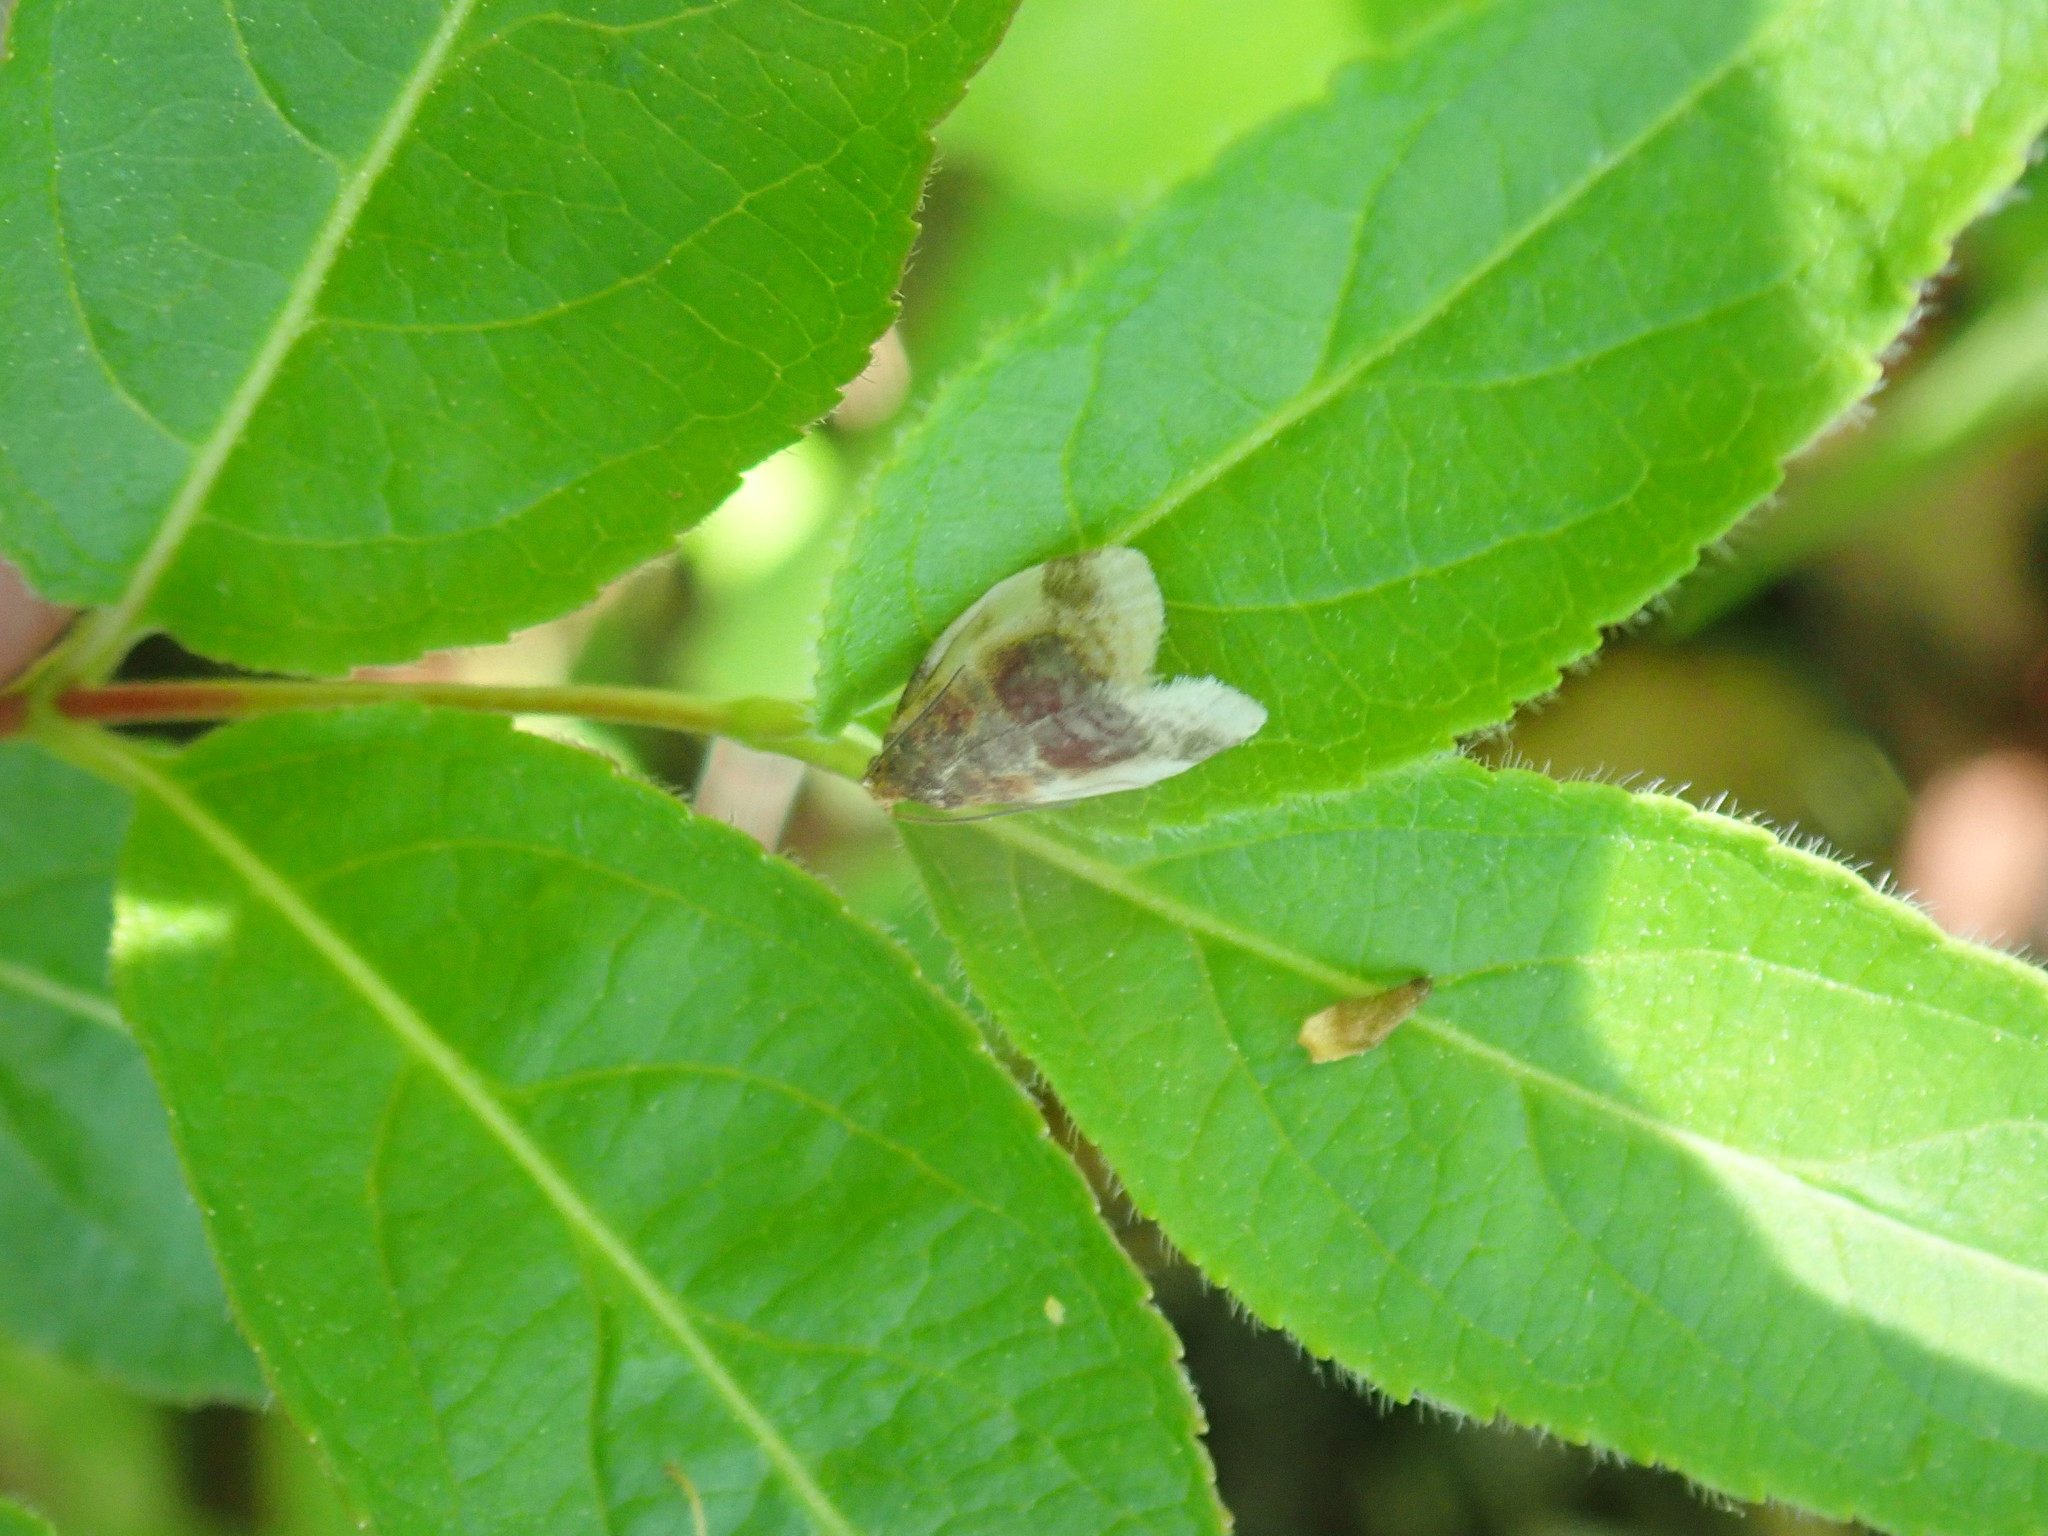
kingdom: Animalia
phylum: Arthropoda
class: Insecta
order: Lepidoptera
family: Tortricidae
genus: Clepsis
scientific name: Clepsis melaleucanus
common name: American apple tortrix
